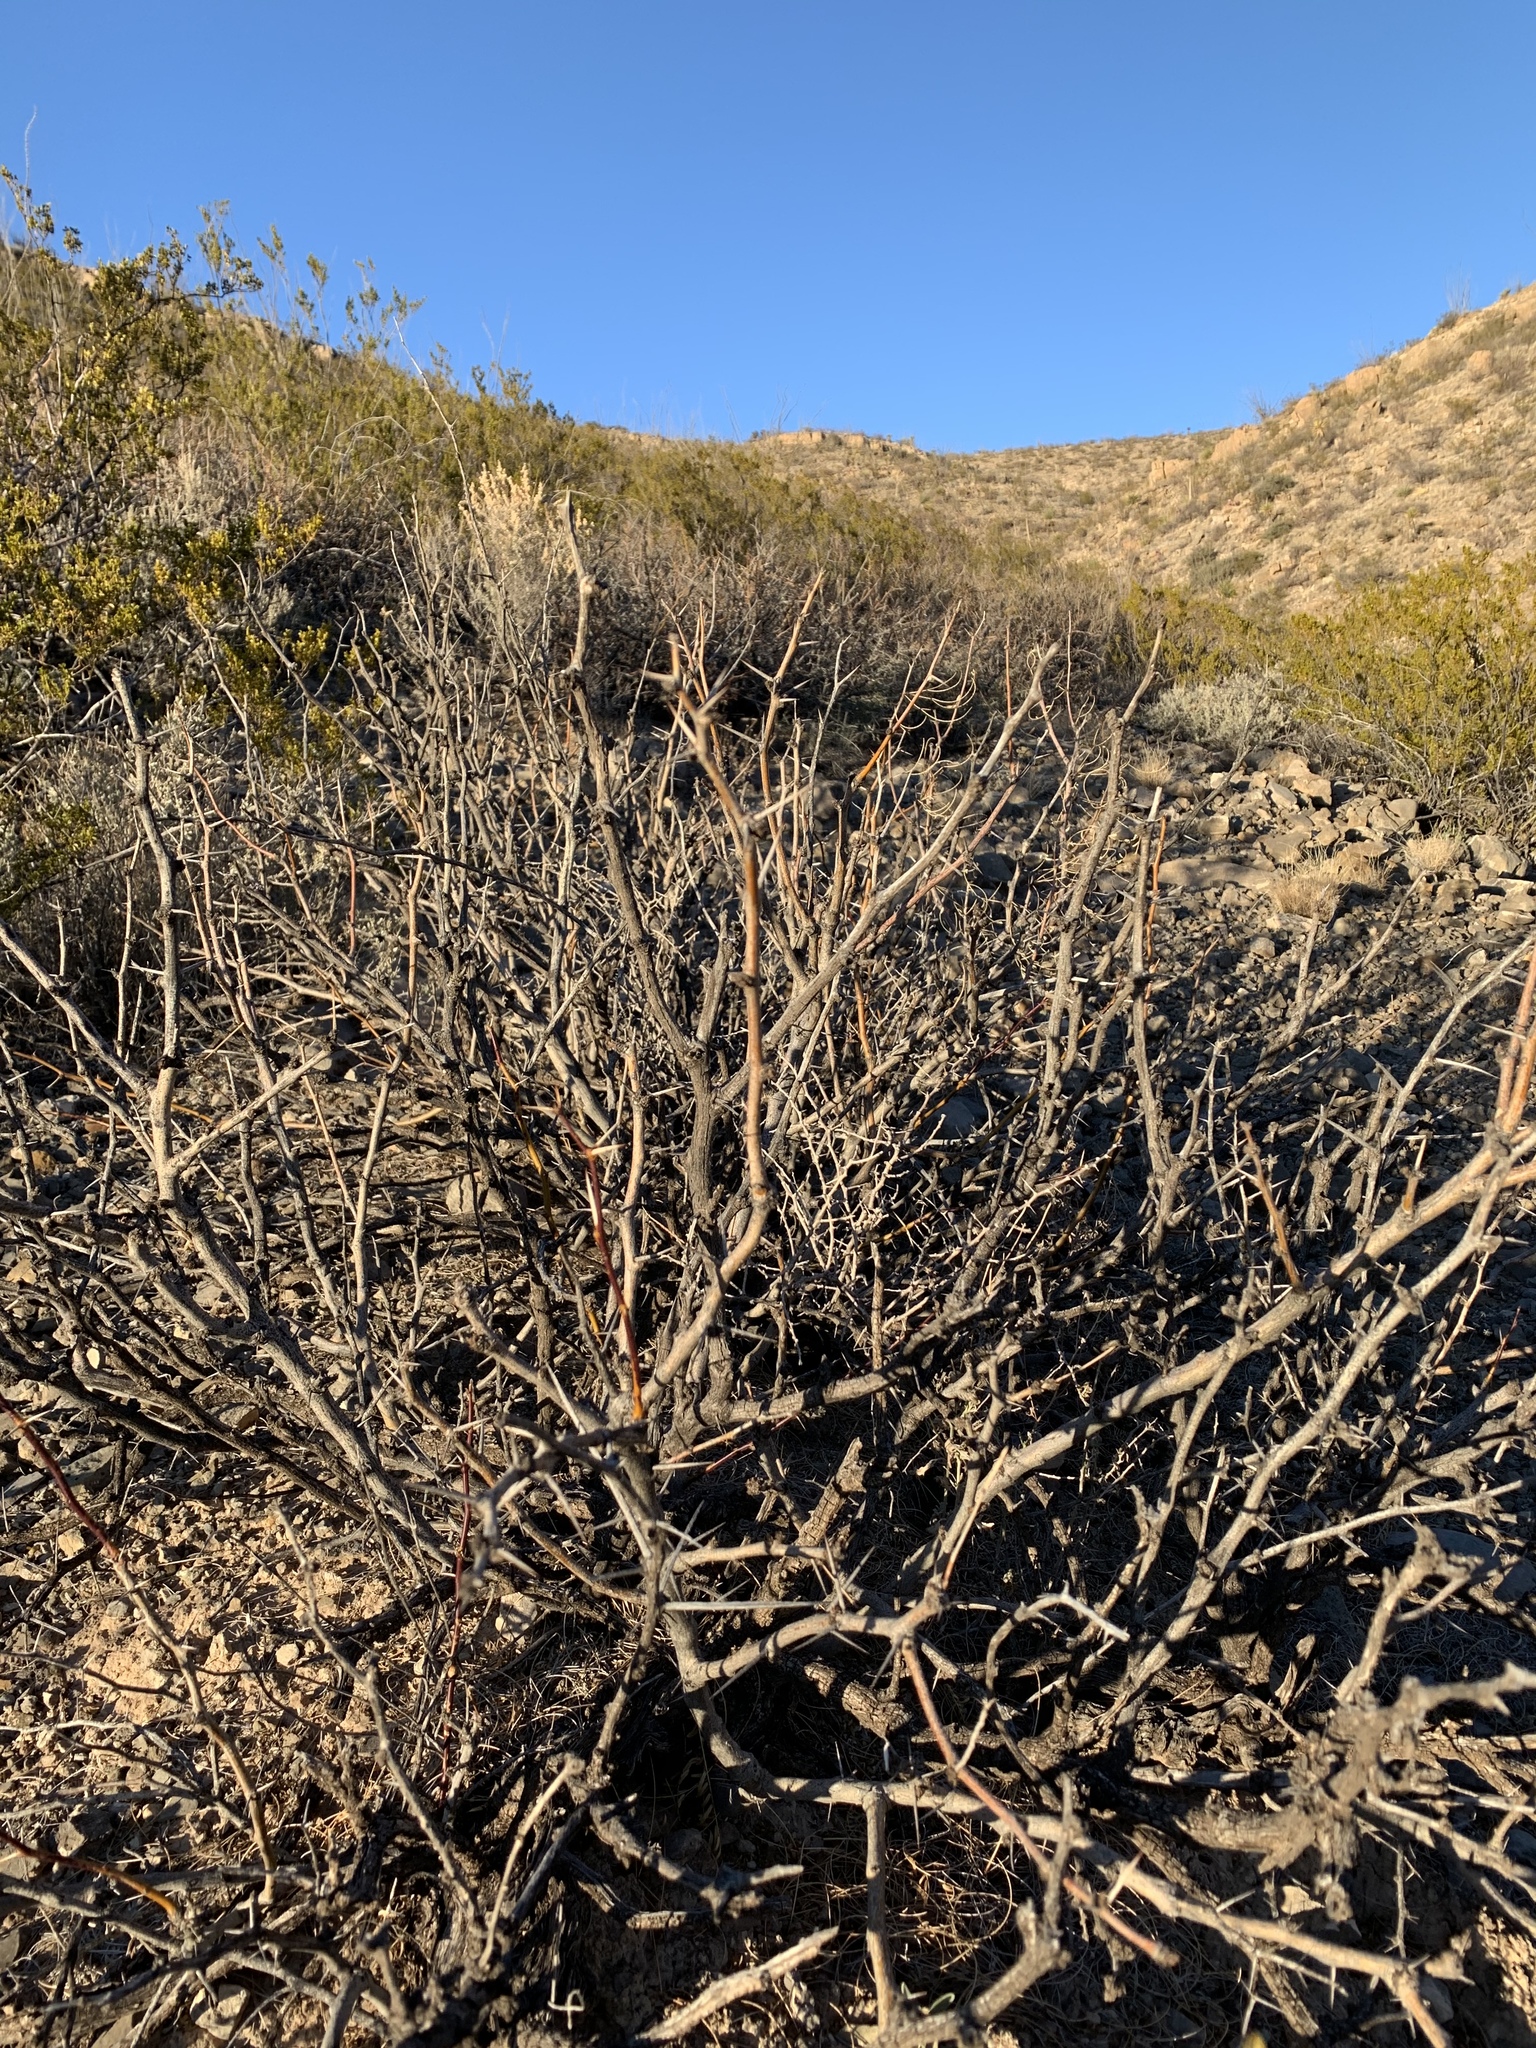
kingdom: Plantae
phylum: Tracheophyta
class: Magnoliopsida
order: Fabales
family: Fabaceae
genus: Prosopis
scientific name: Prosopis glandulosa
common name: Honey mesquite
